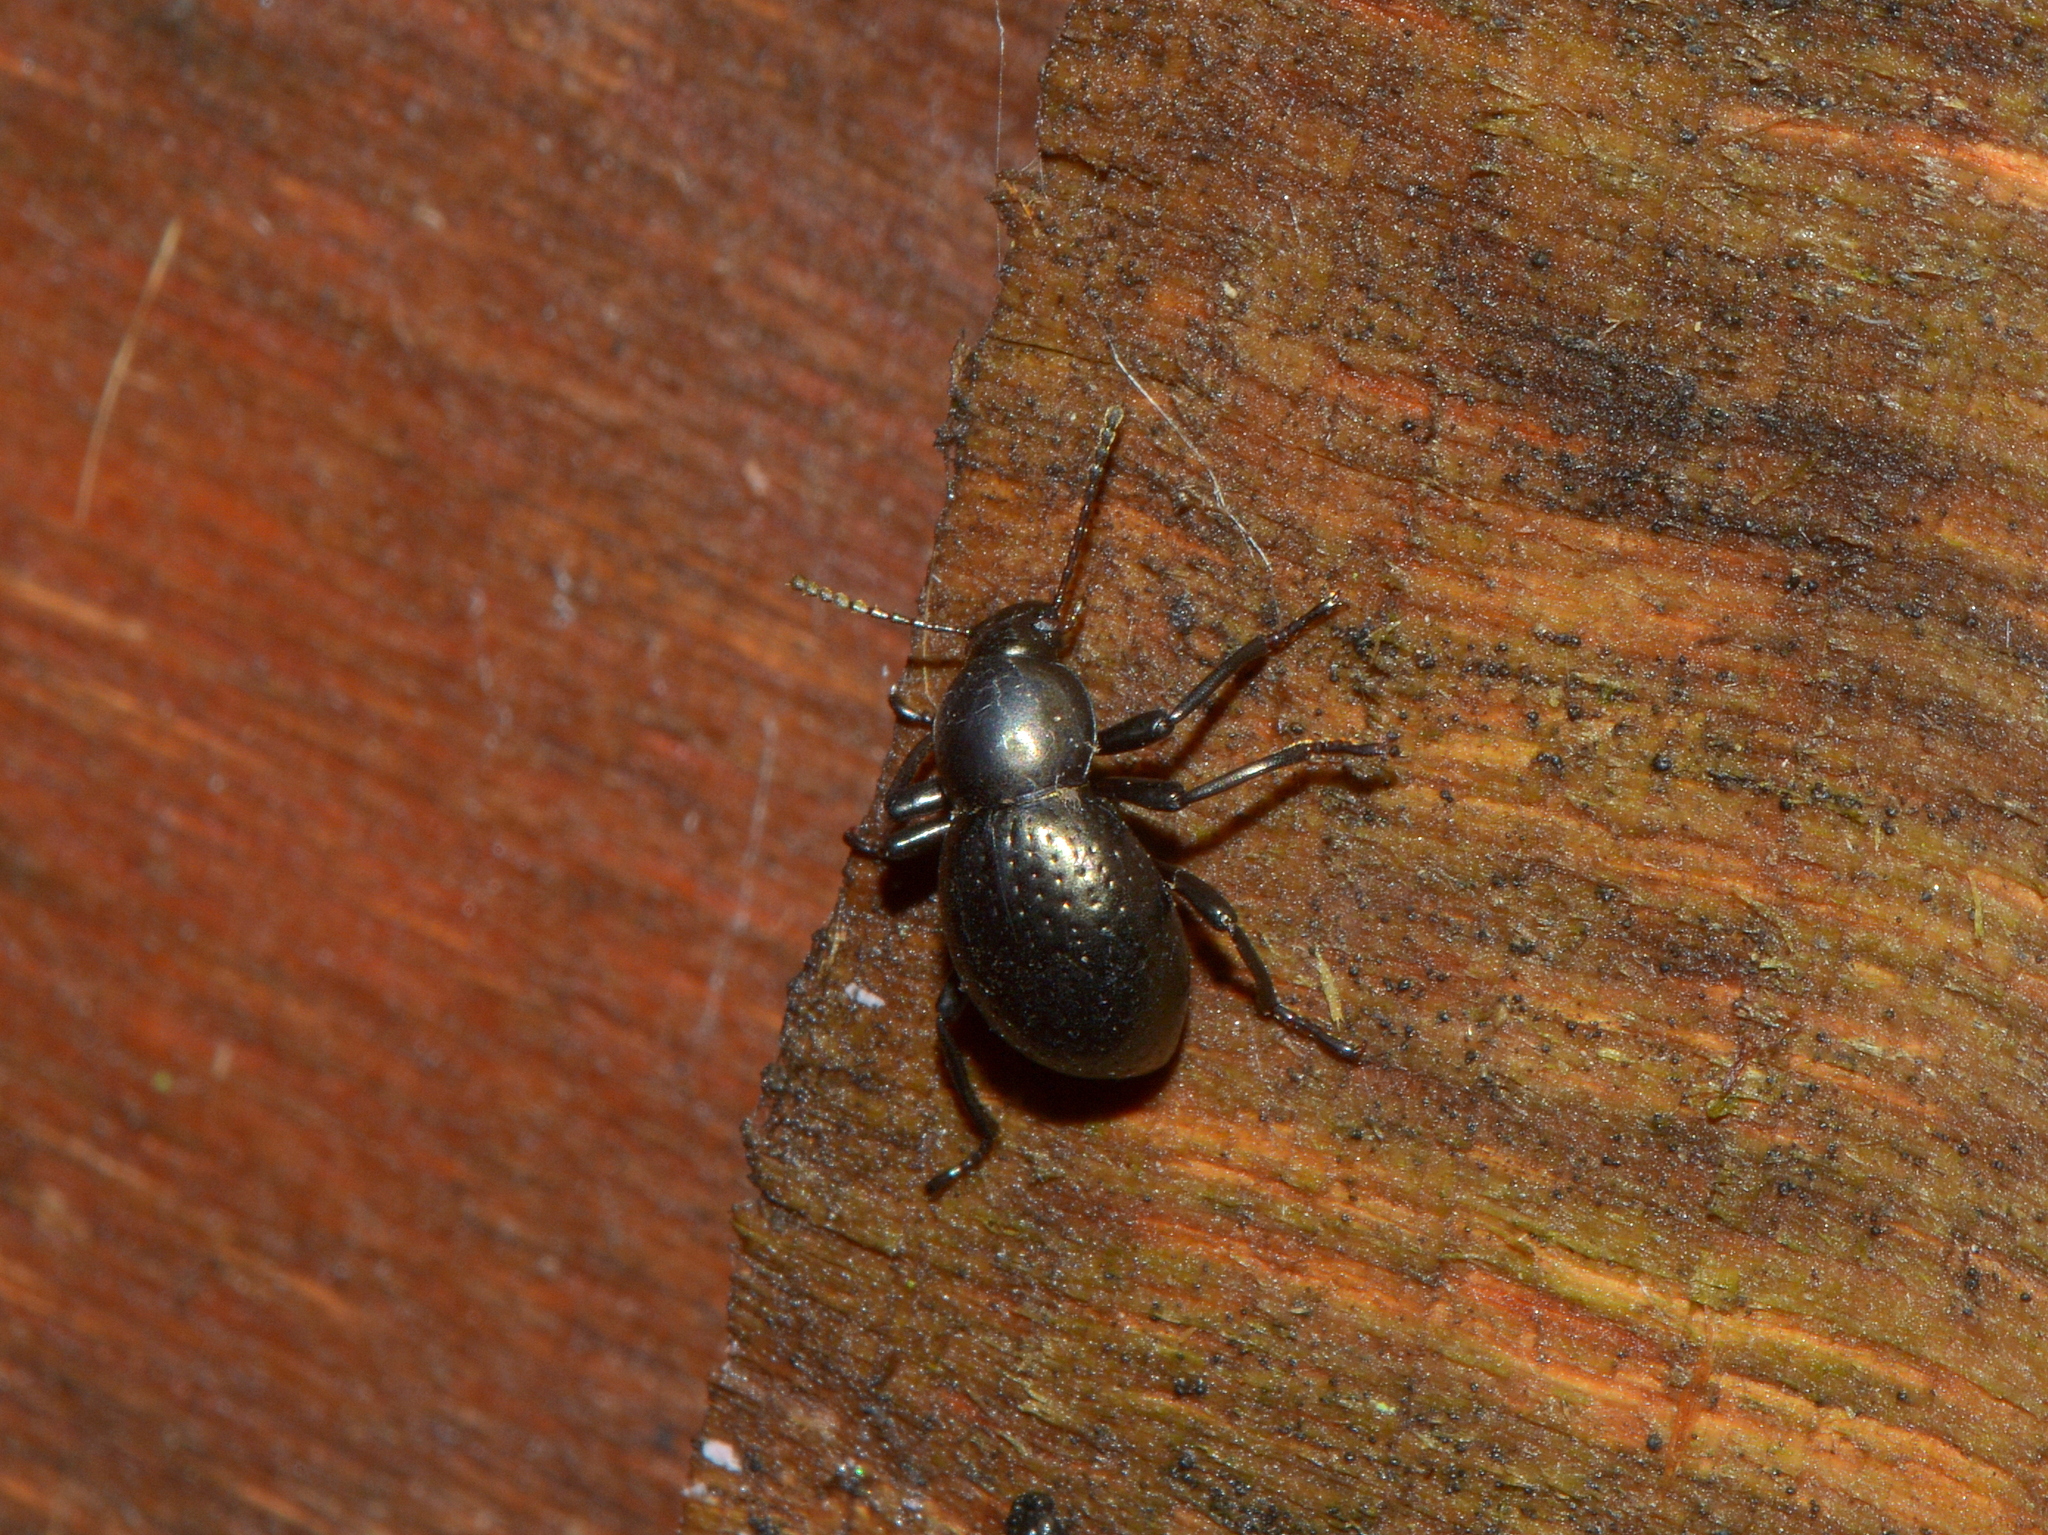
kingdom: Animalia
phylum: Arthropoda
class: Insecta
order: Coleoptera
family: Tenebrionidae
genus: Sphaerotus
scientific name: Sphaerotus
